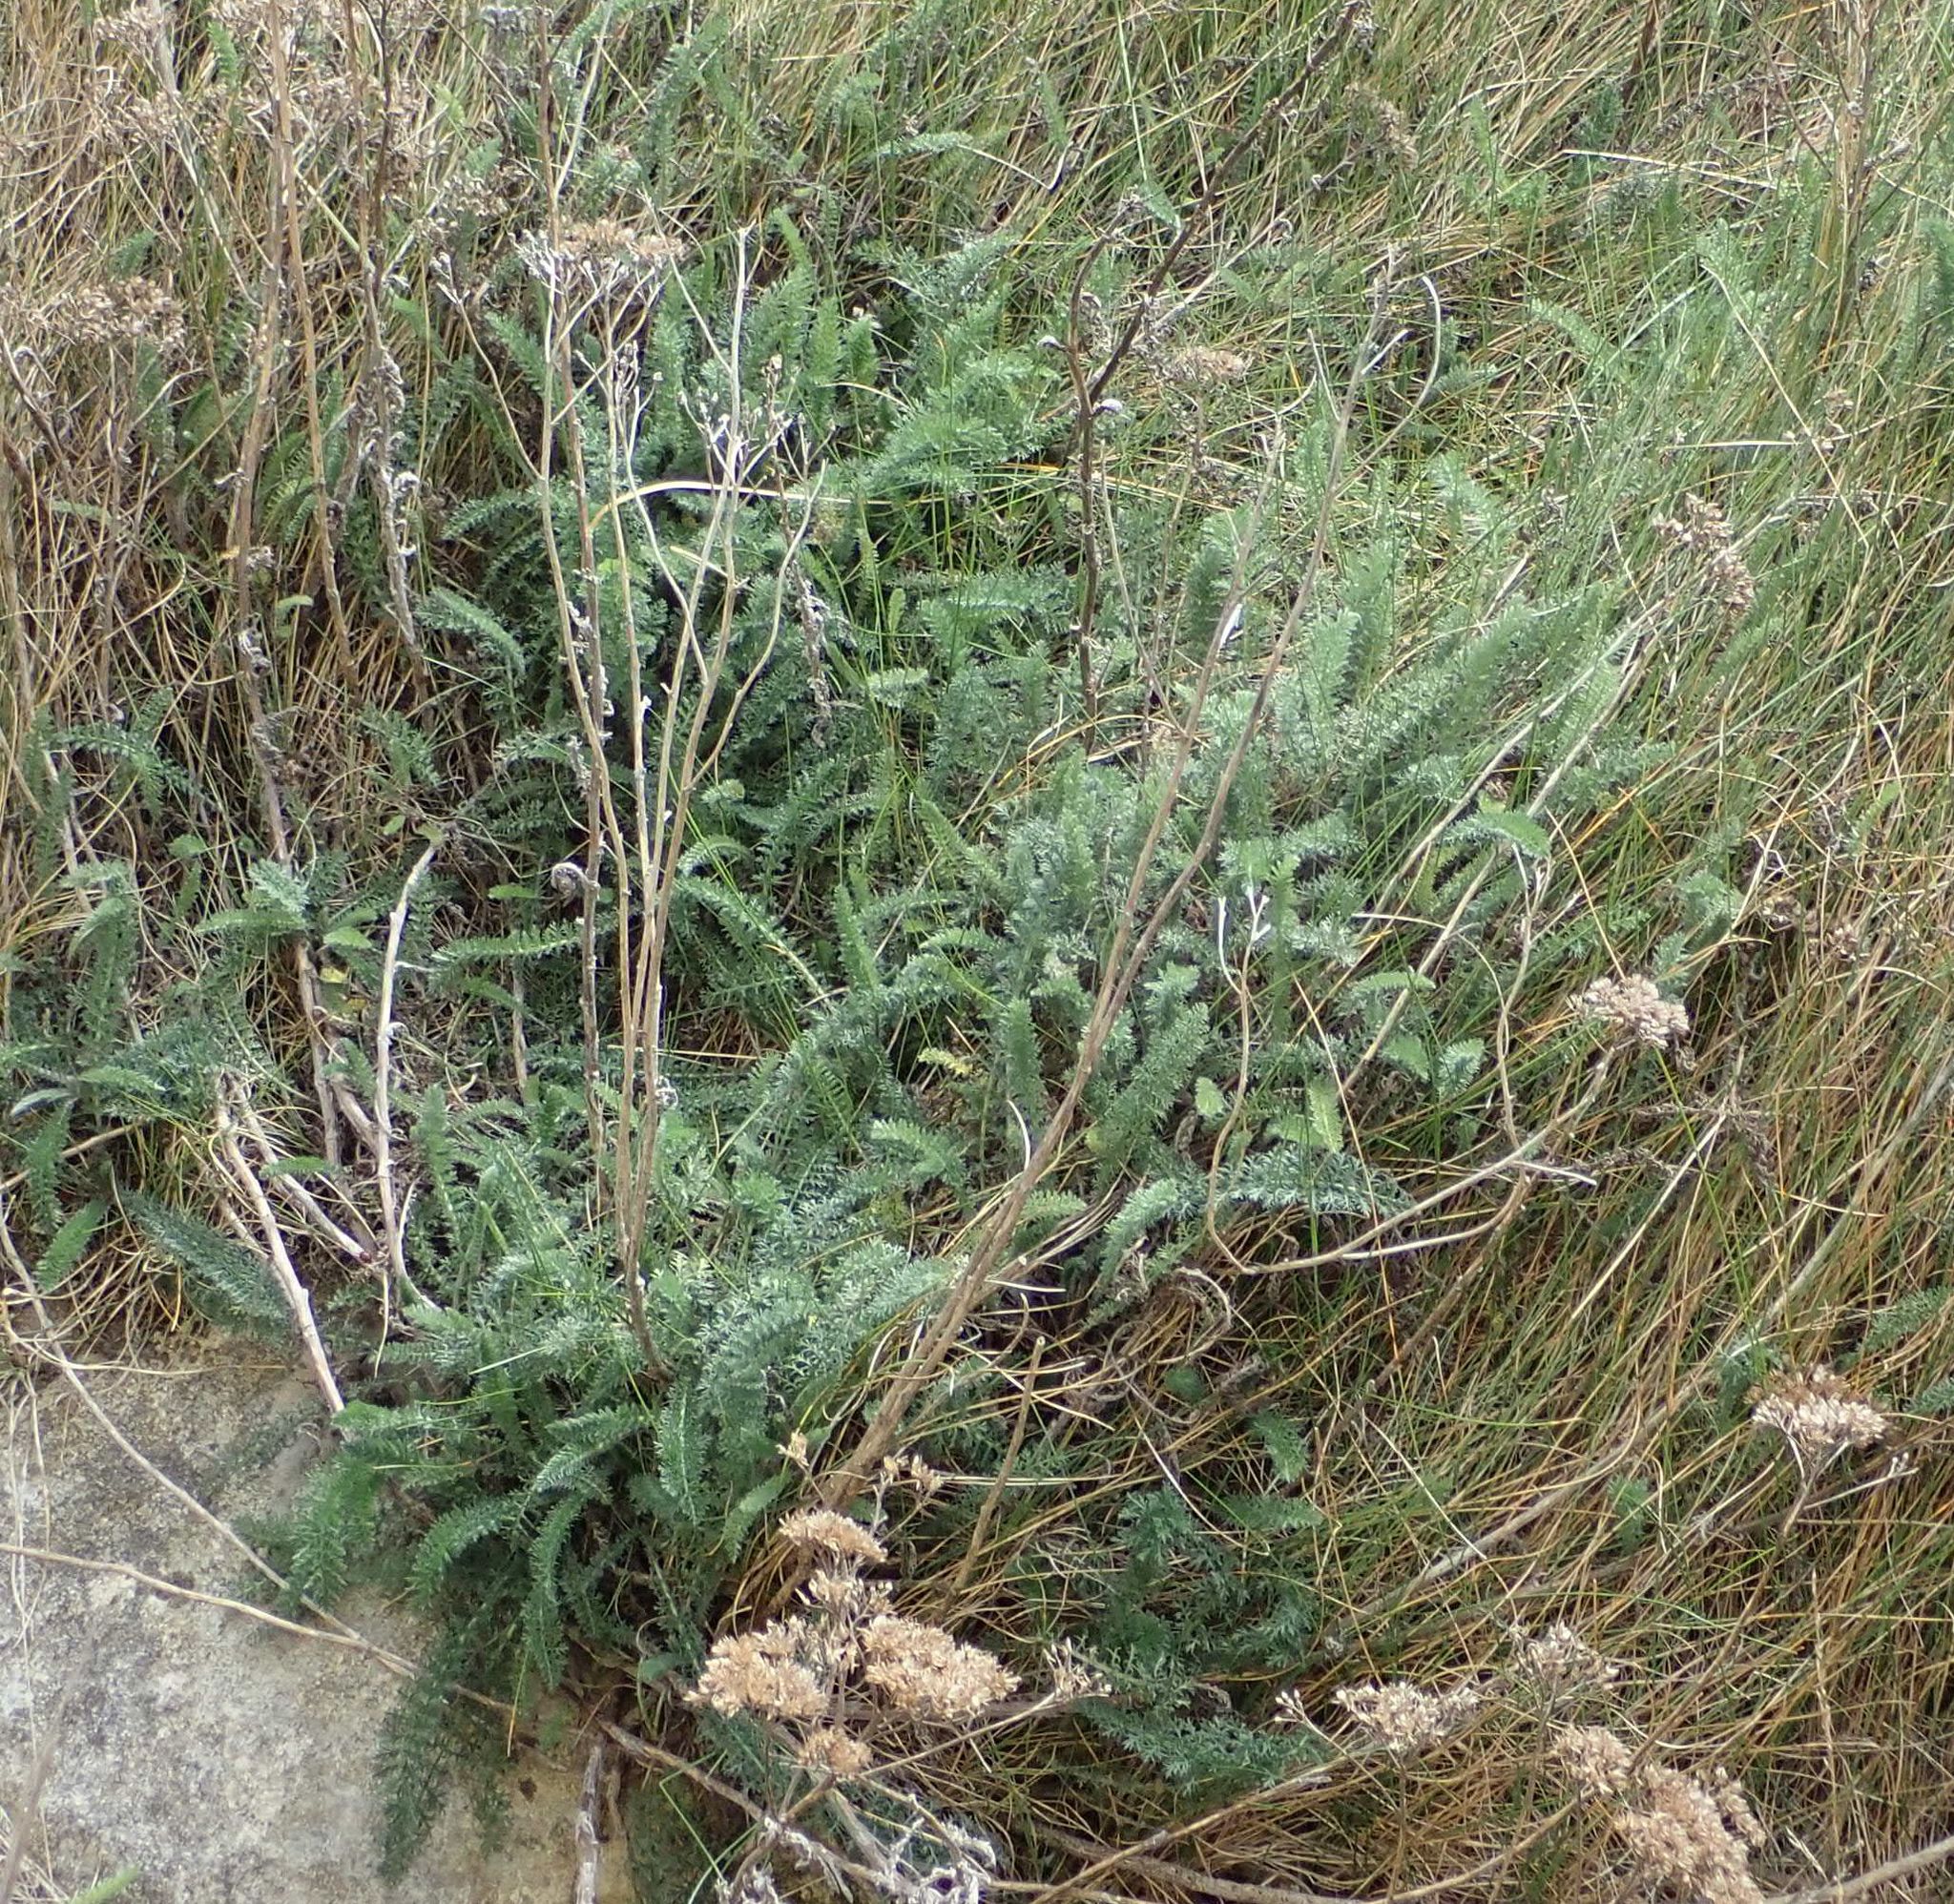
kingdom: Plantae
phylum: Tracheophyta
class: Magnoliopsida
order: Asterales
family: Asteraceae
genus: Achillea
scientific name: Achillea millefolium
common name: Yarrow
